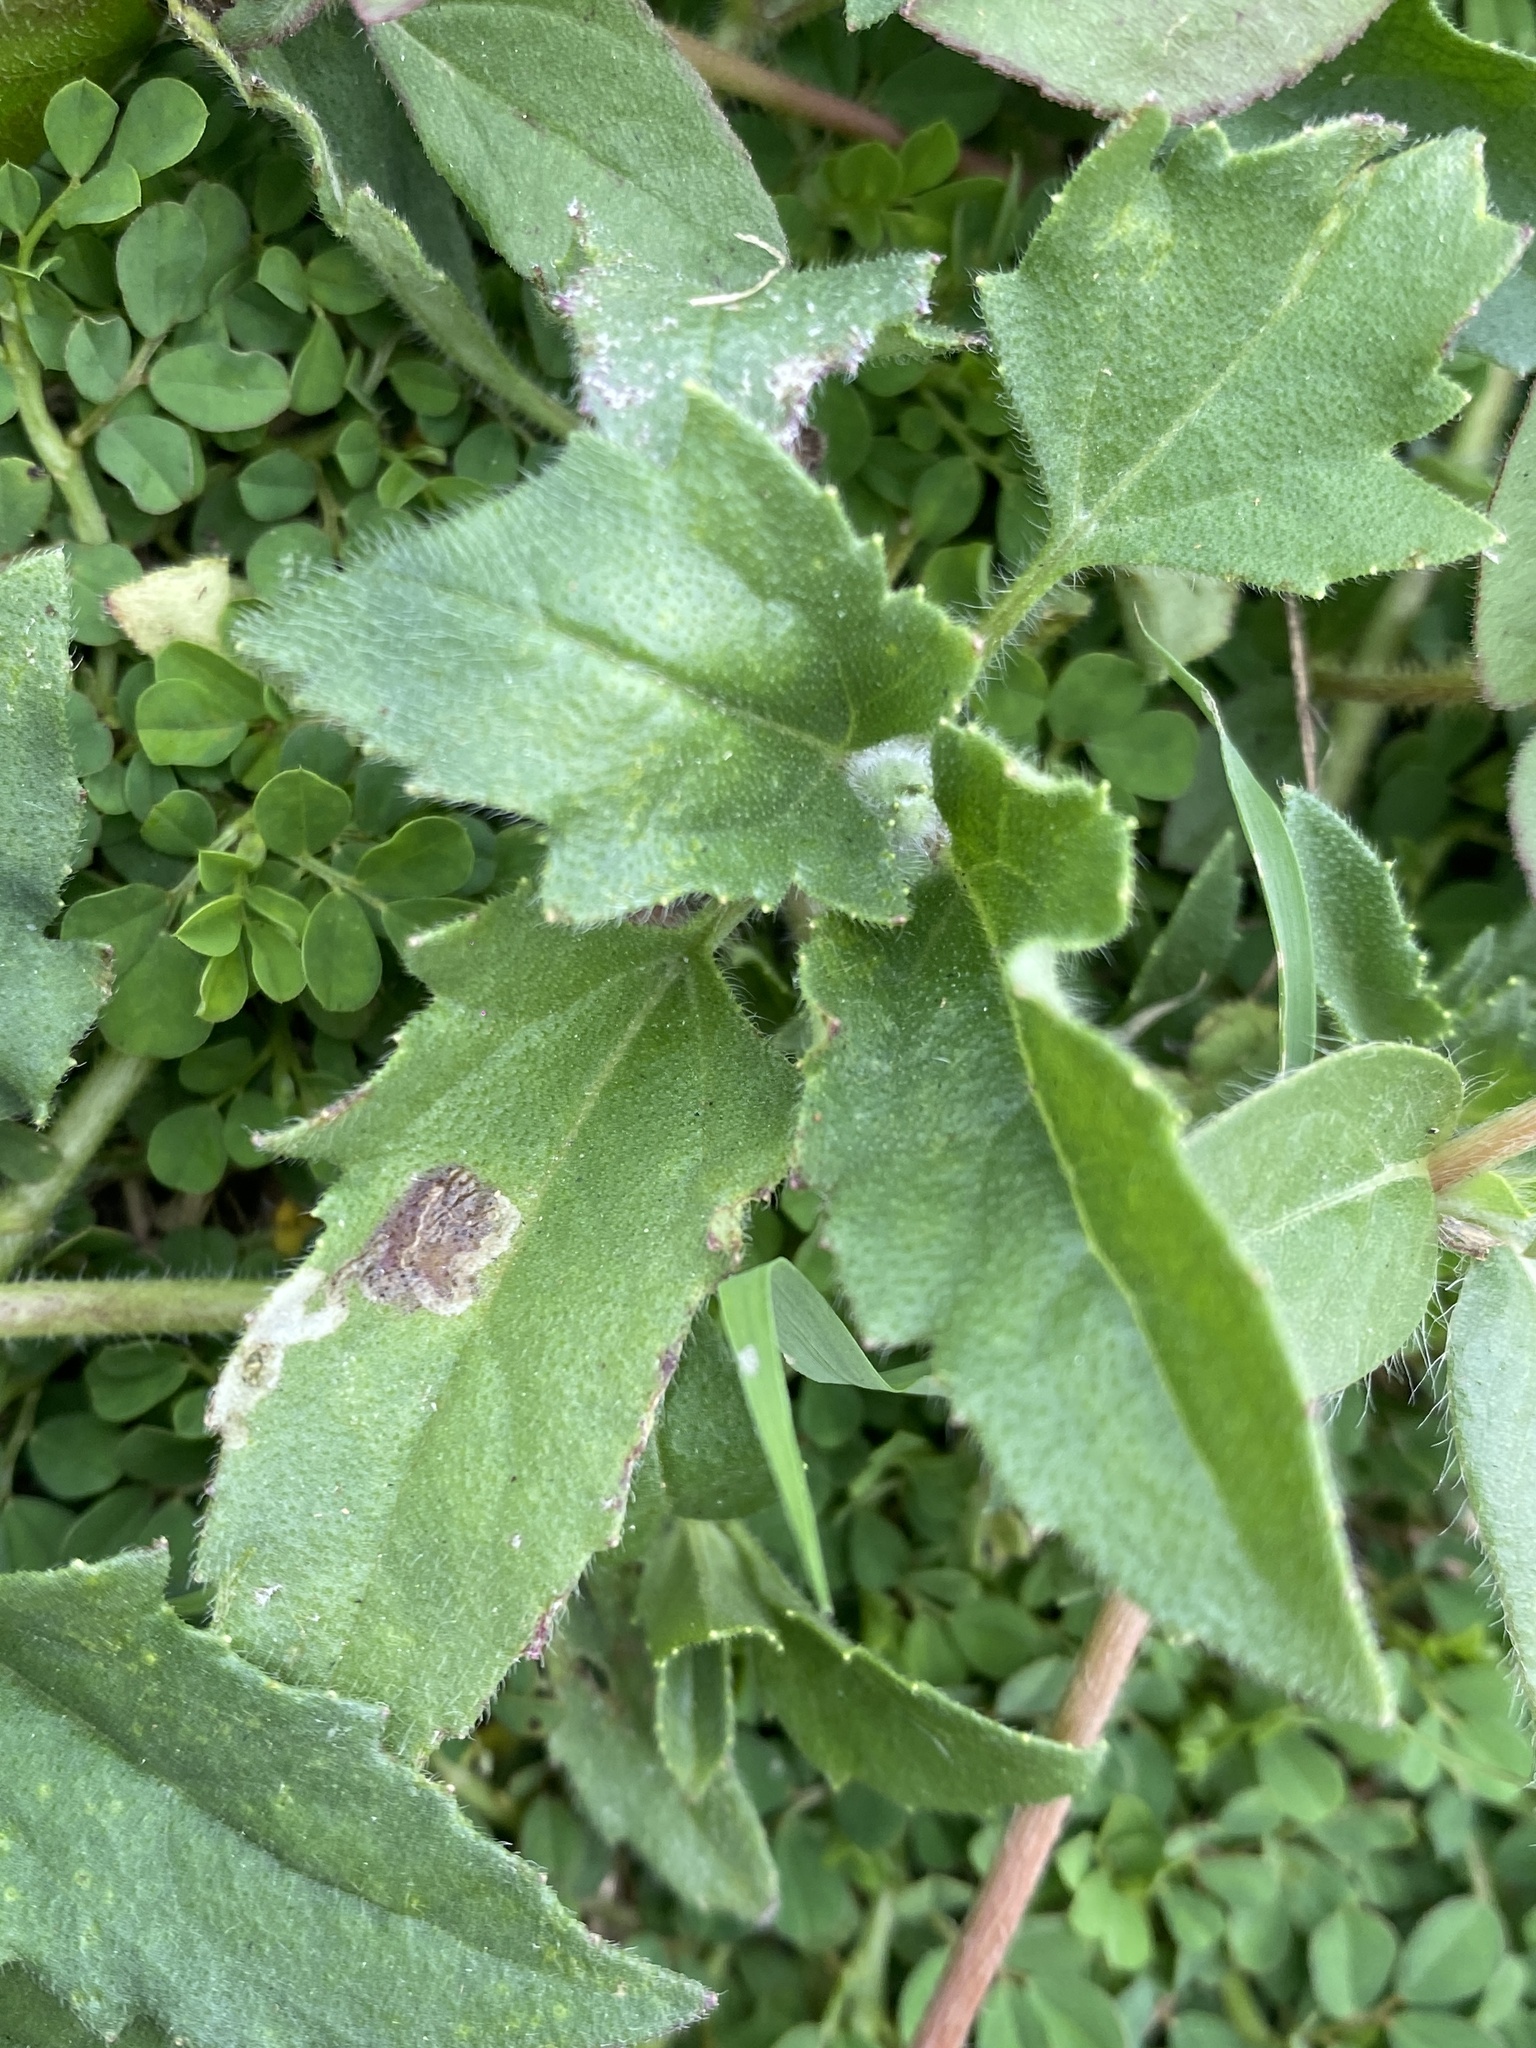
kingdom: Plantae
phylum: Tracheophyta
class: Magnoliopsida
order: Asterales
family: Asteraceae
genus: Tridax
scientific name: Tridax procumbens
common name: Coatbuttons
